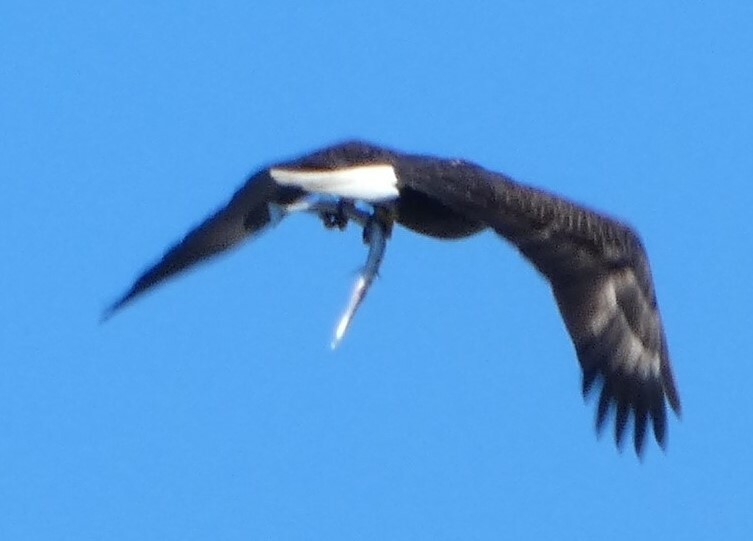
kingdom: Animalia
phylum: Chordata
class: Aves
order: Accipitriformes
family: Accipitridae
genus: Haliaeetus
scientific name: Haliaeetus leucocephalus
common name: Bald eagle
